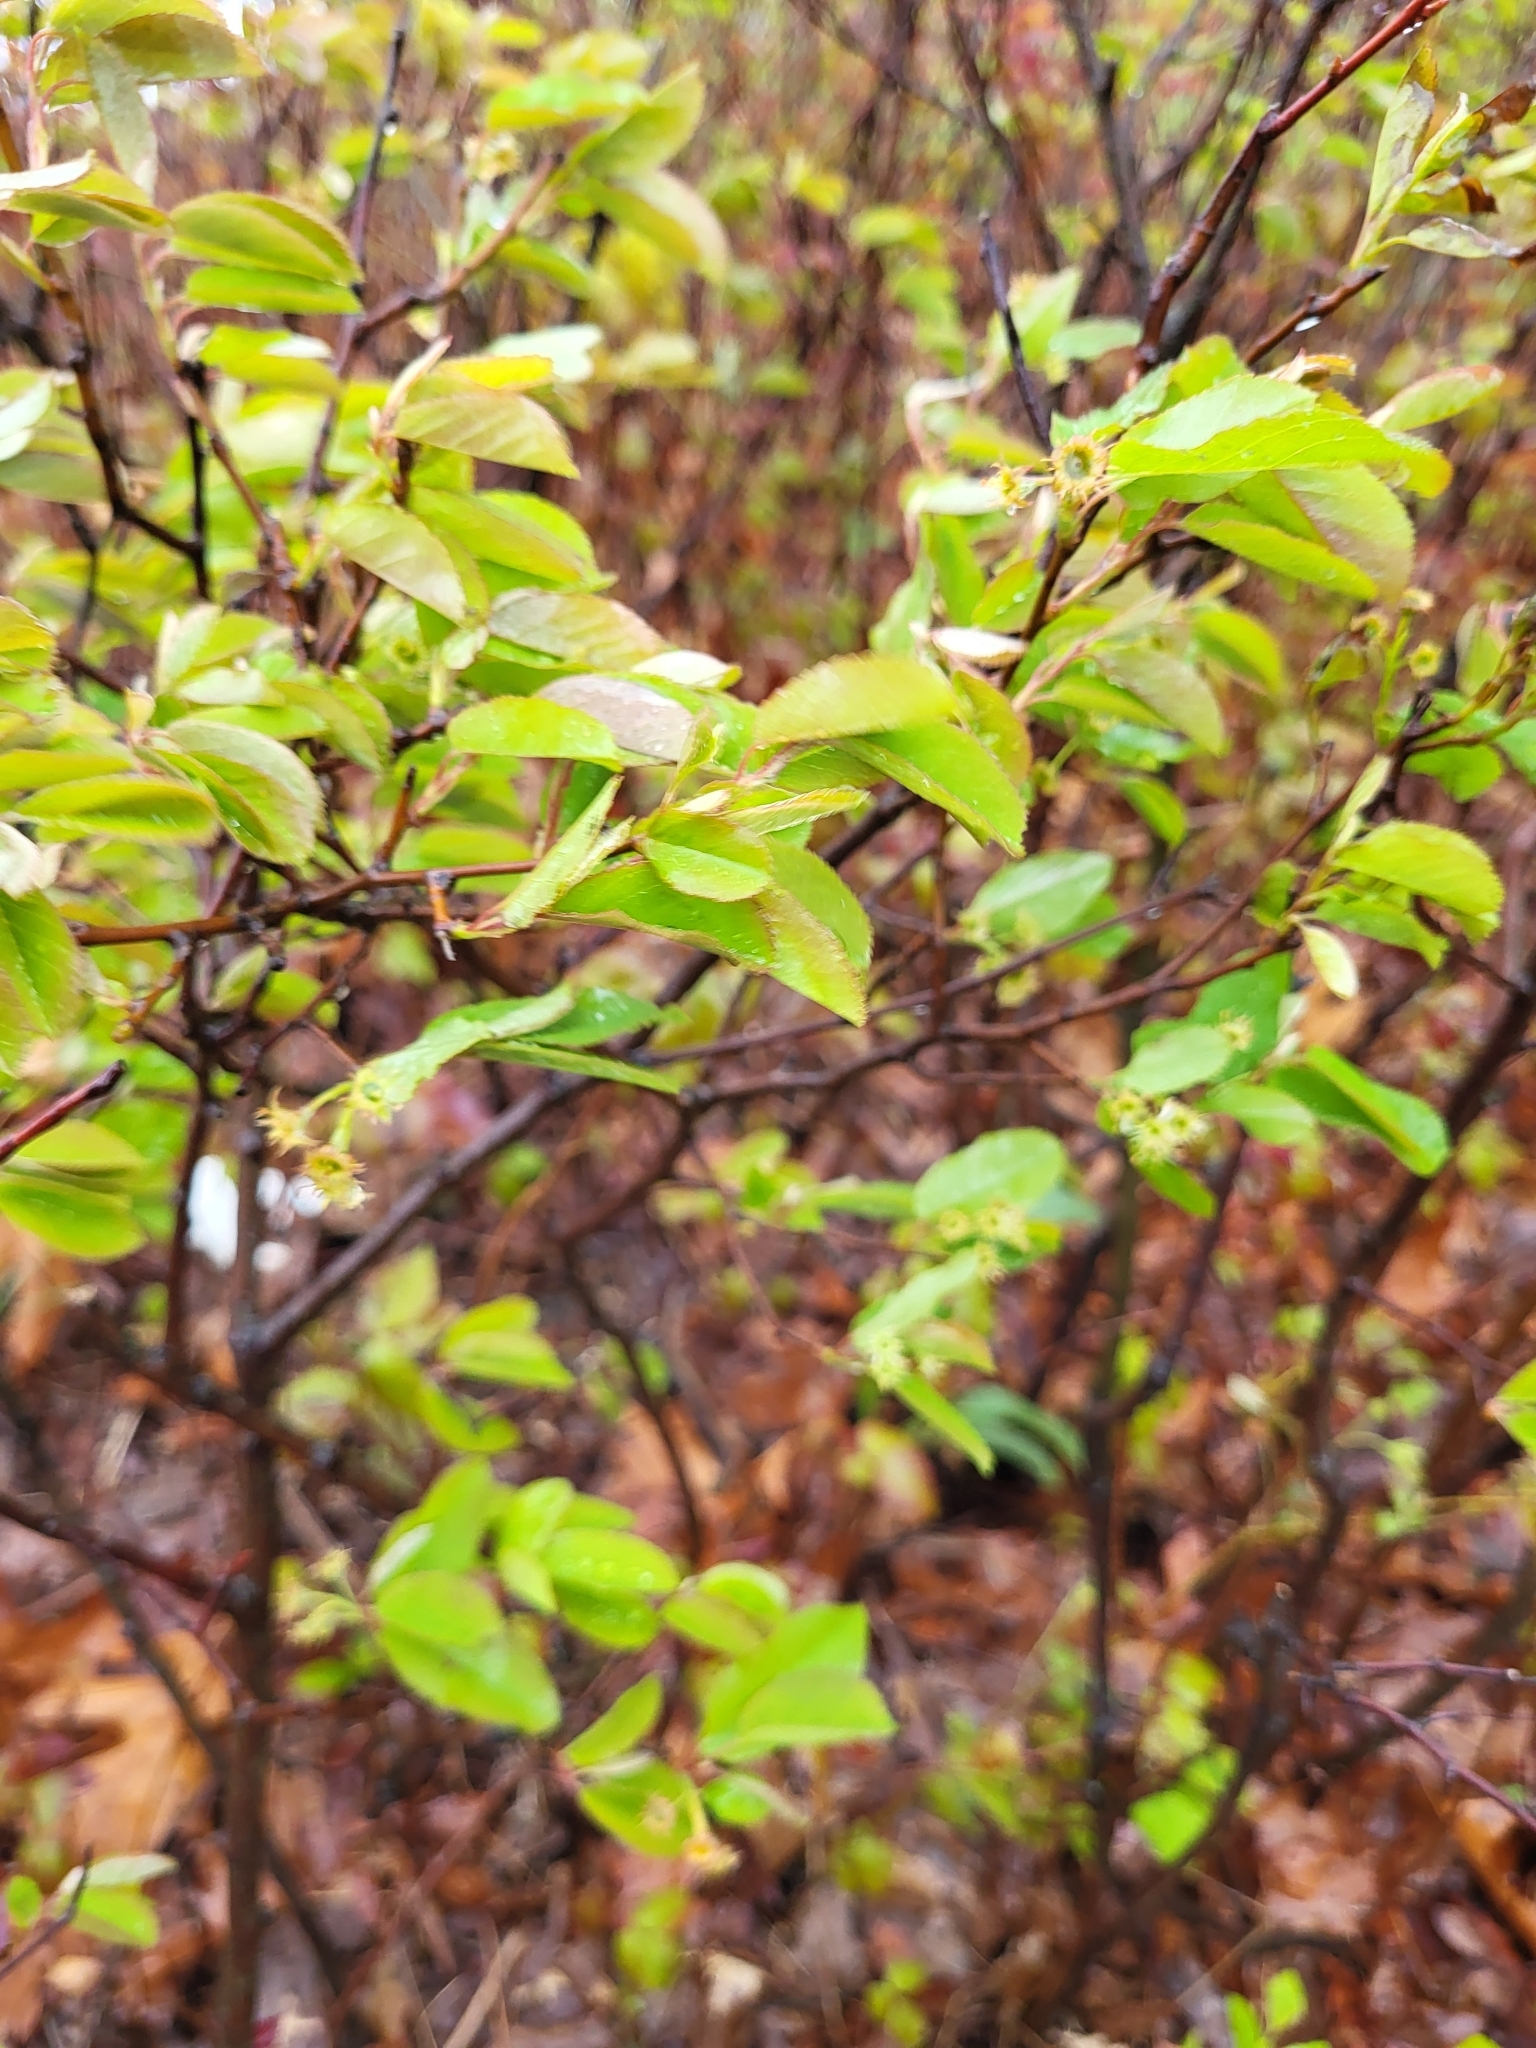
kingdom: Plantae
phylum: Tracheophyta
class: Magnoliopsida
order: Rosales
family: Rosaceae
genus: Amelanchier
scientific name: Amelanchier nantucketensis
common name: Nantucket shadbush
